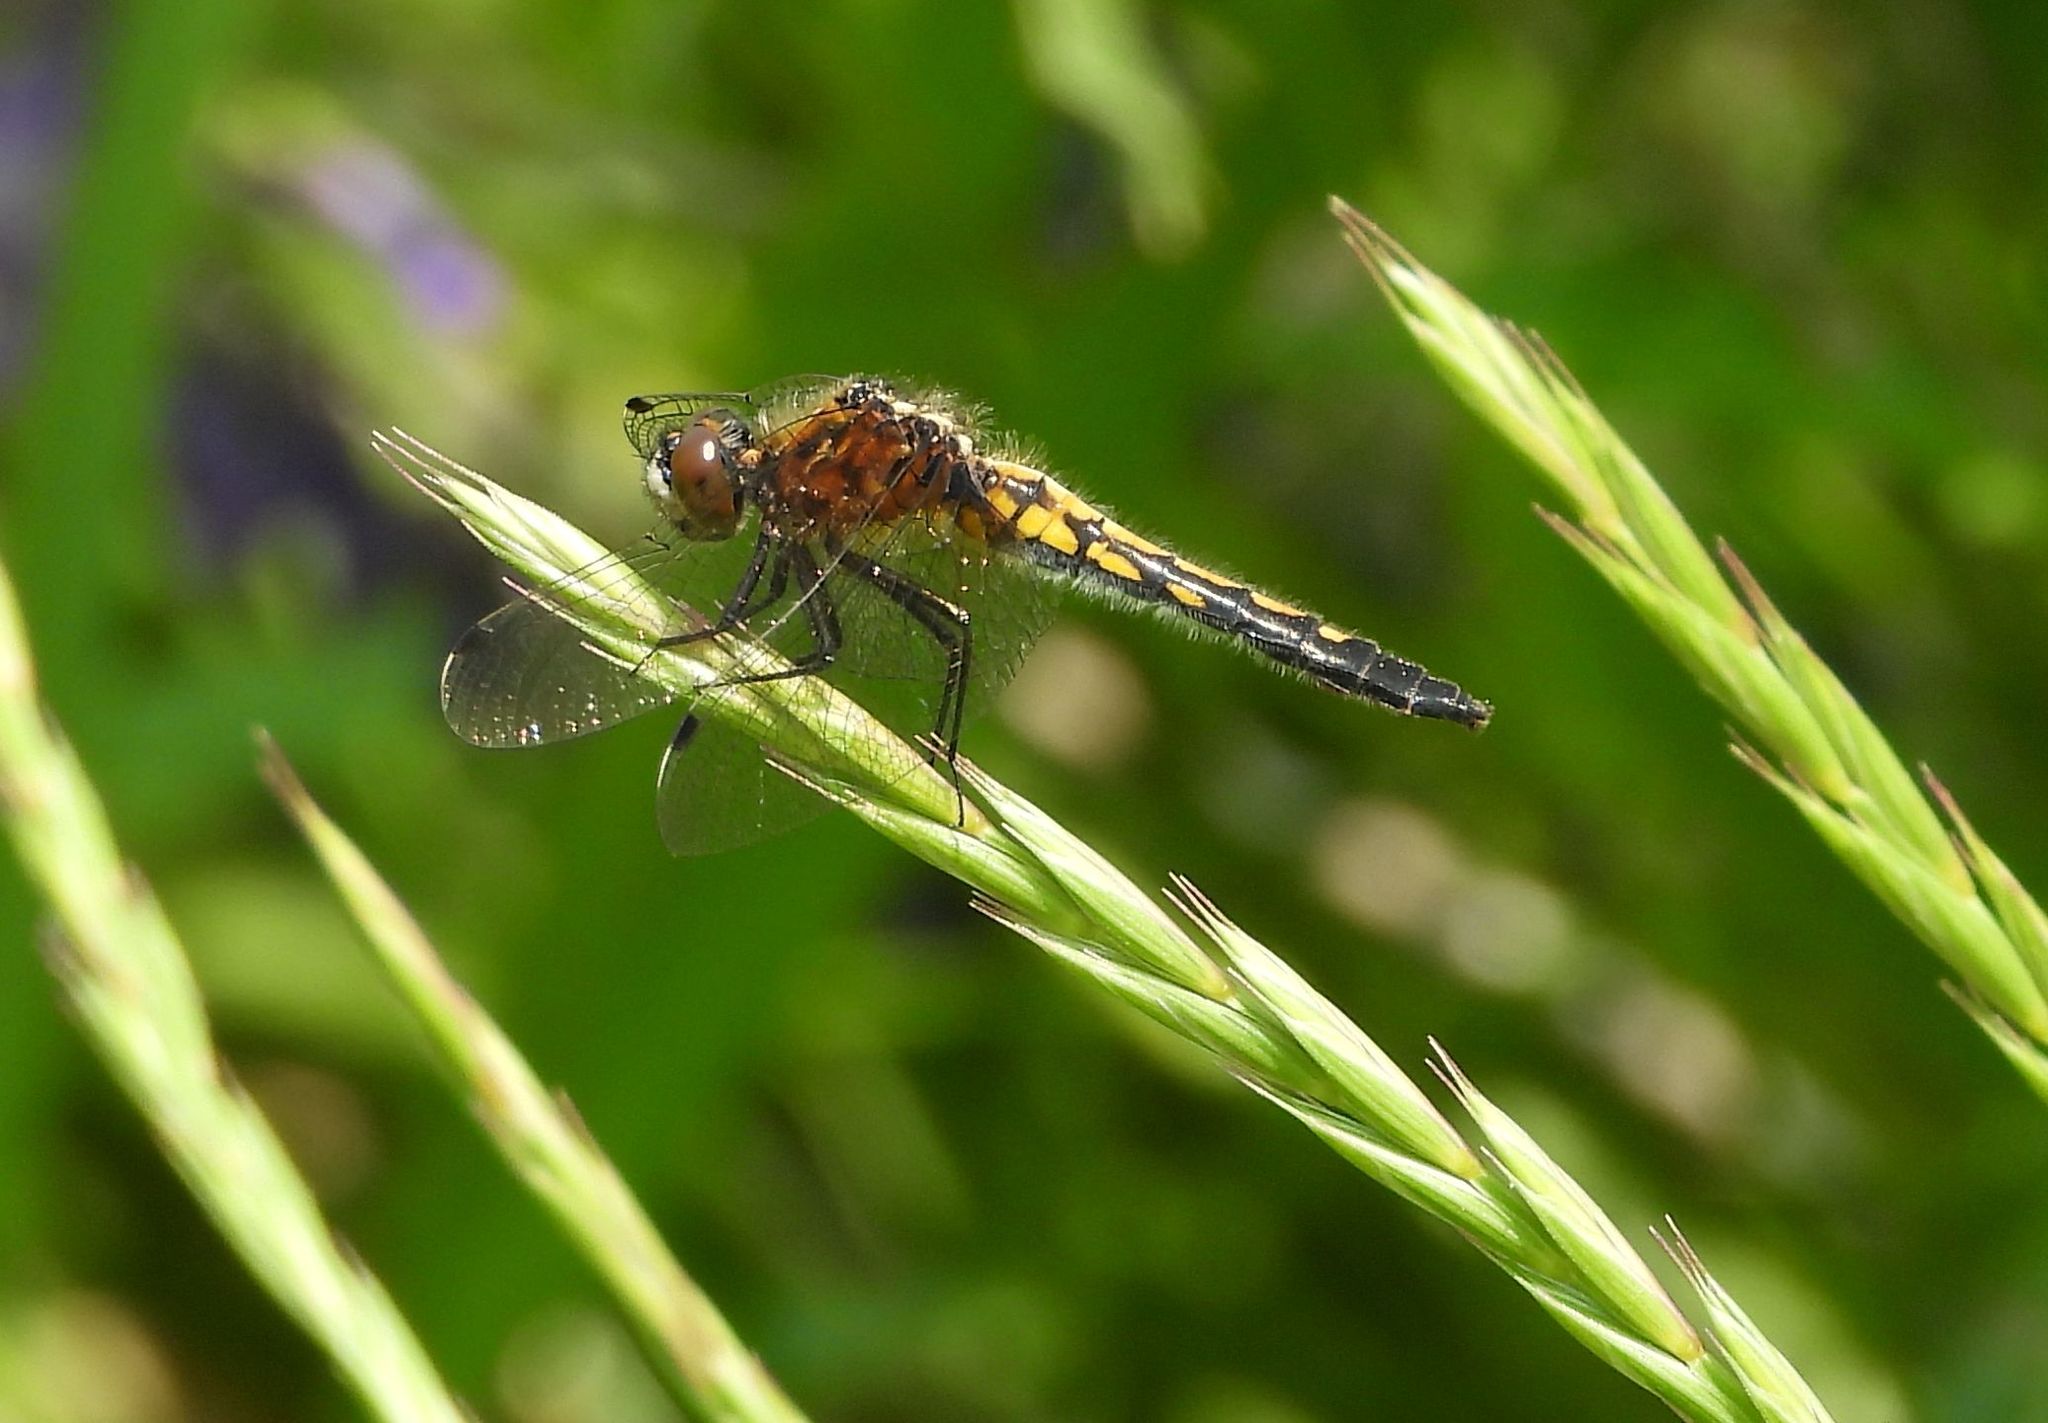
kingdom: Animalia
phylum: Arthropoda
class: Insecta
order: Odonata
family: Libellulidae
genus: Leucorrhinia
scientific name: Leucorrhinia intacta
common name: Dot-tailed whiteface
